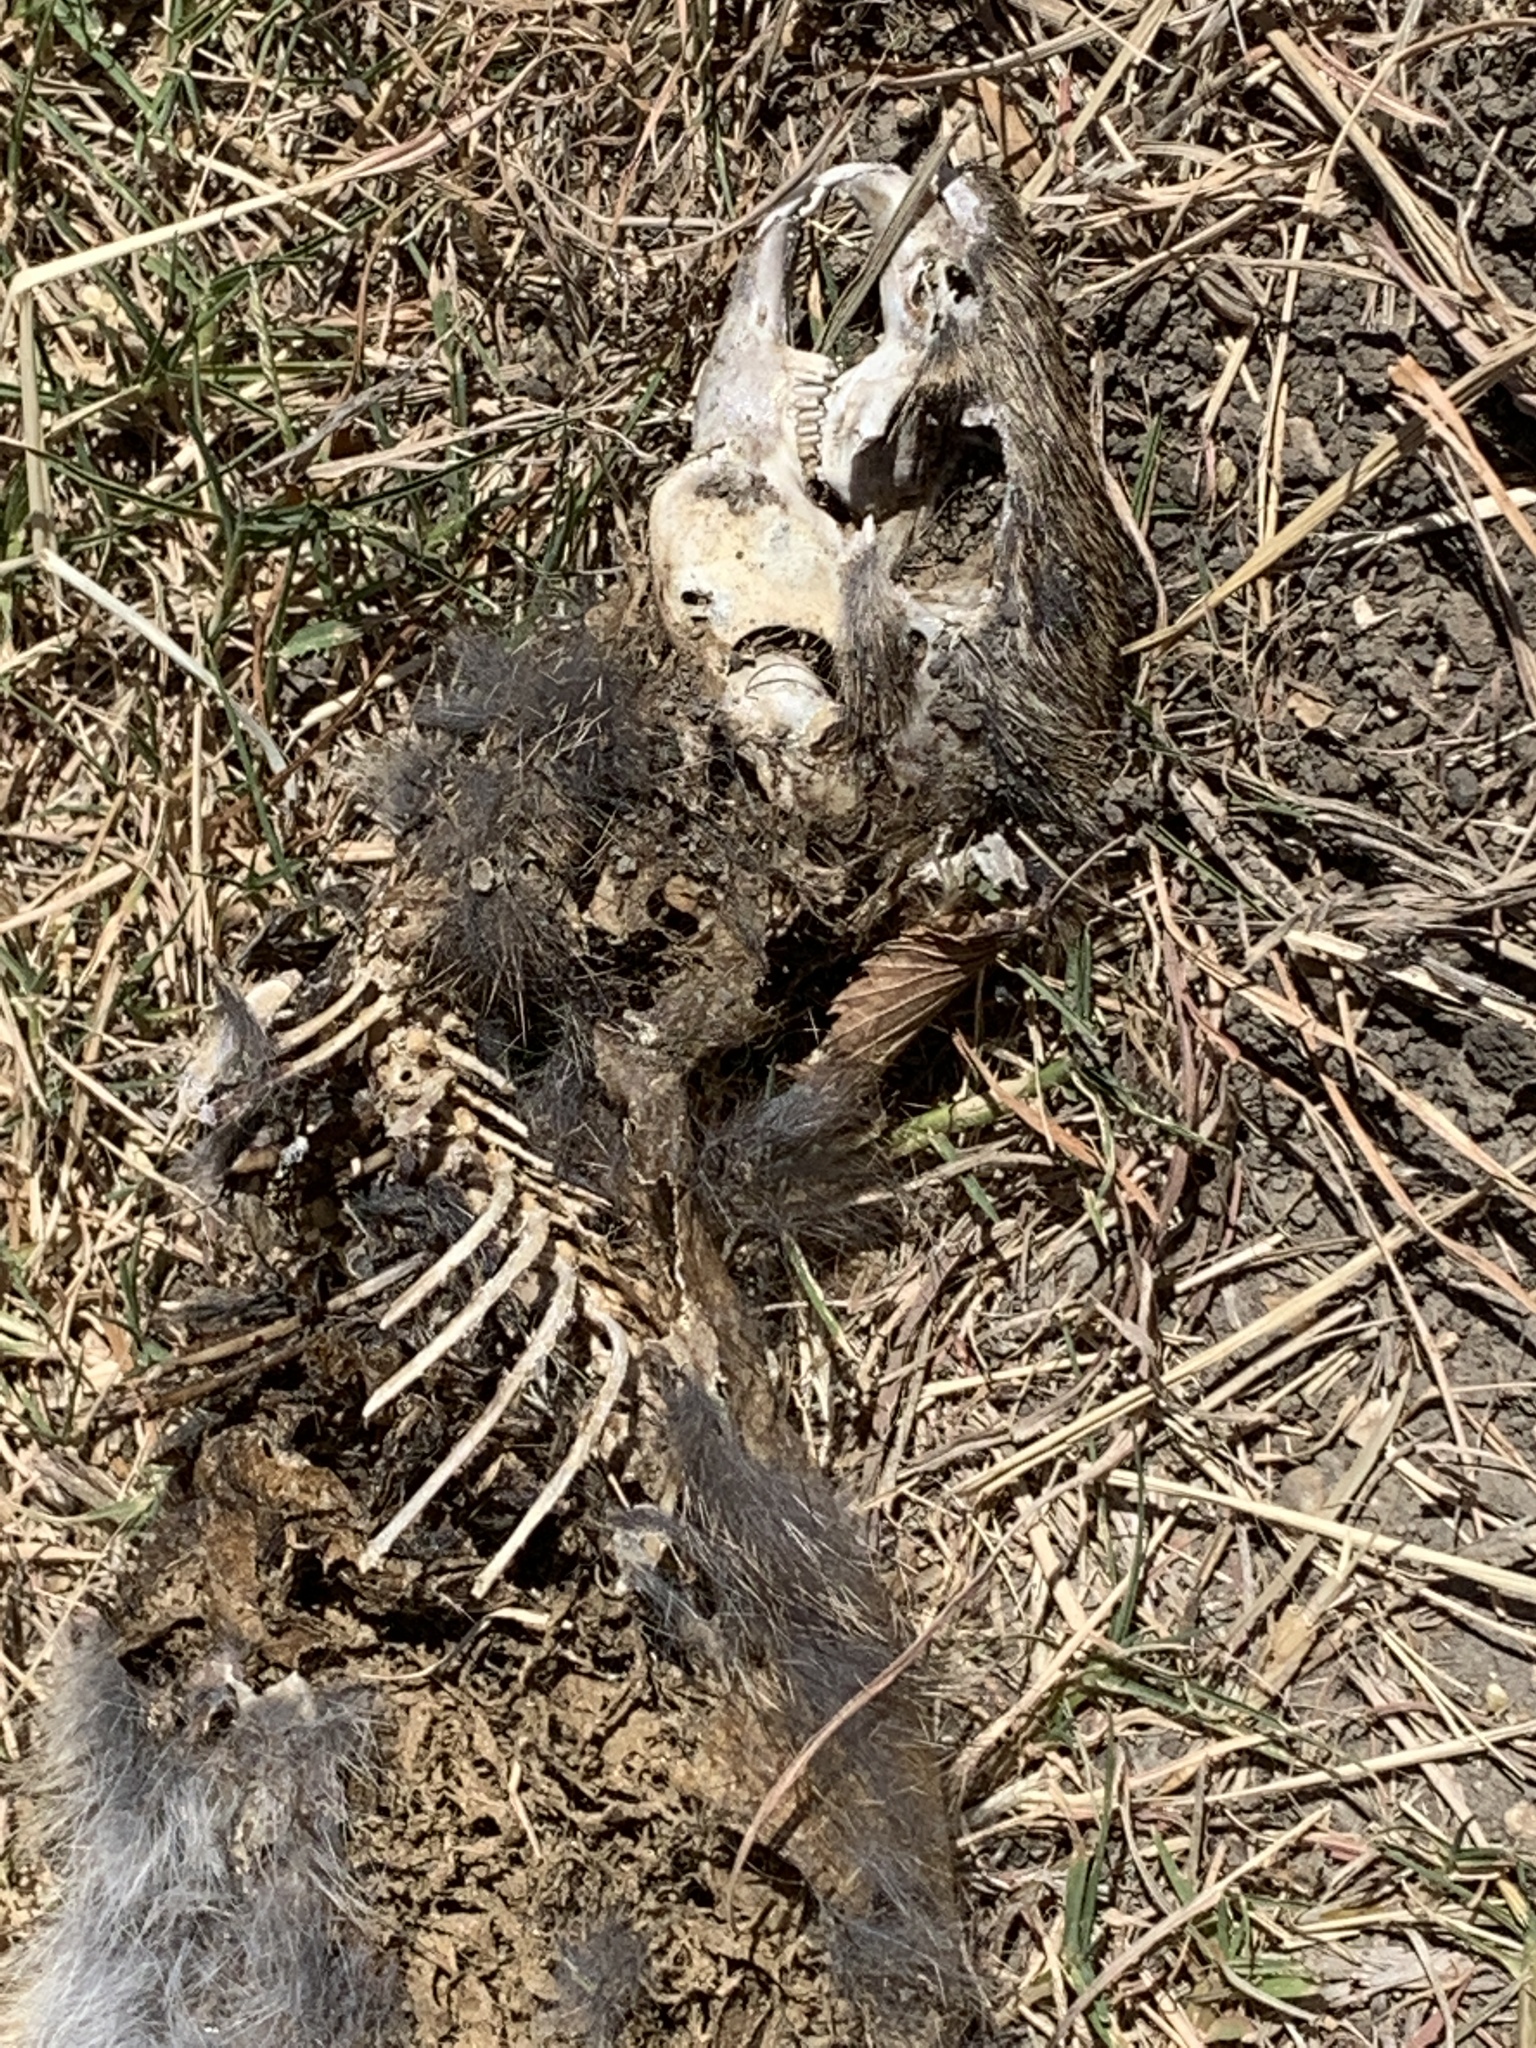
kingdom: Animalia
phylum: Chordata
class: Mammalia
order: Lagomorpha
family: Leporidae
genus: Sylvilagus
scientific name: Sylvilagus floridanus
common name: Eastern cottontail
